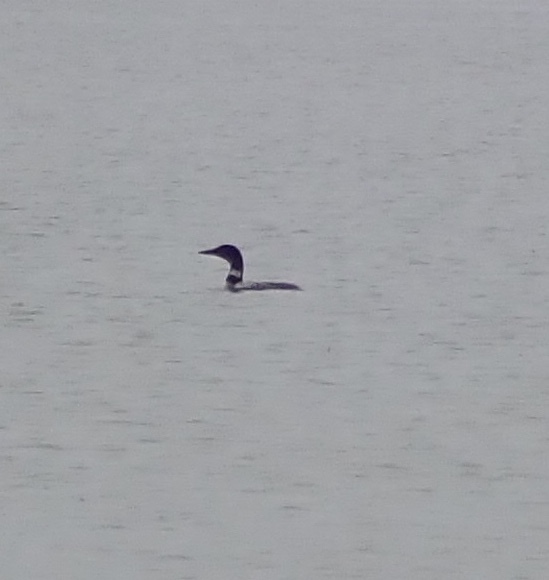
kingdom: Animalia
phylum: Chordata
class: Aves
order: Gaviiformes
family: Gaviidae
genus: Gavia
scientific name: Gavia immer
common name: Common loon
